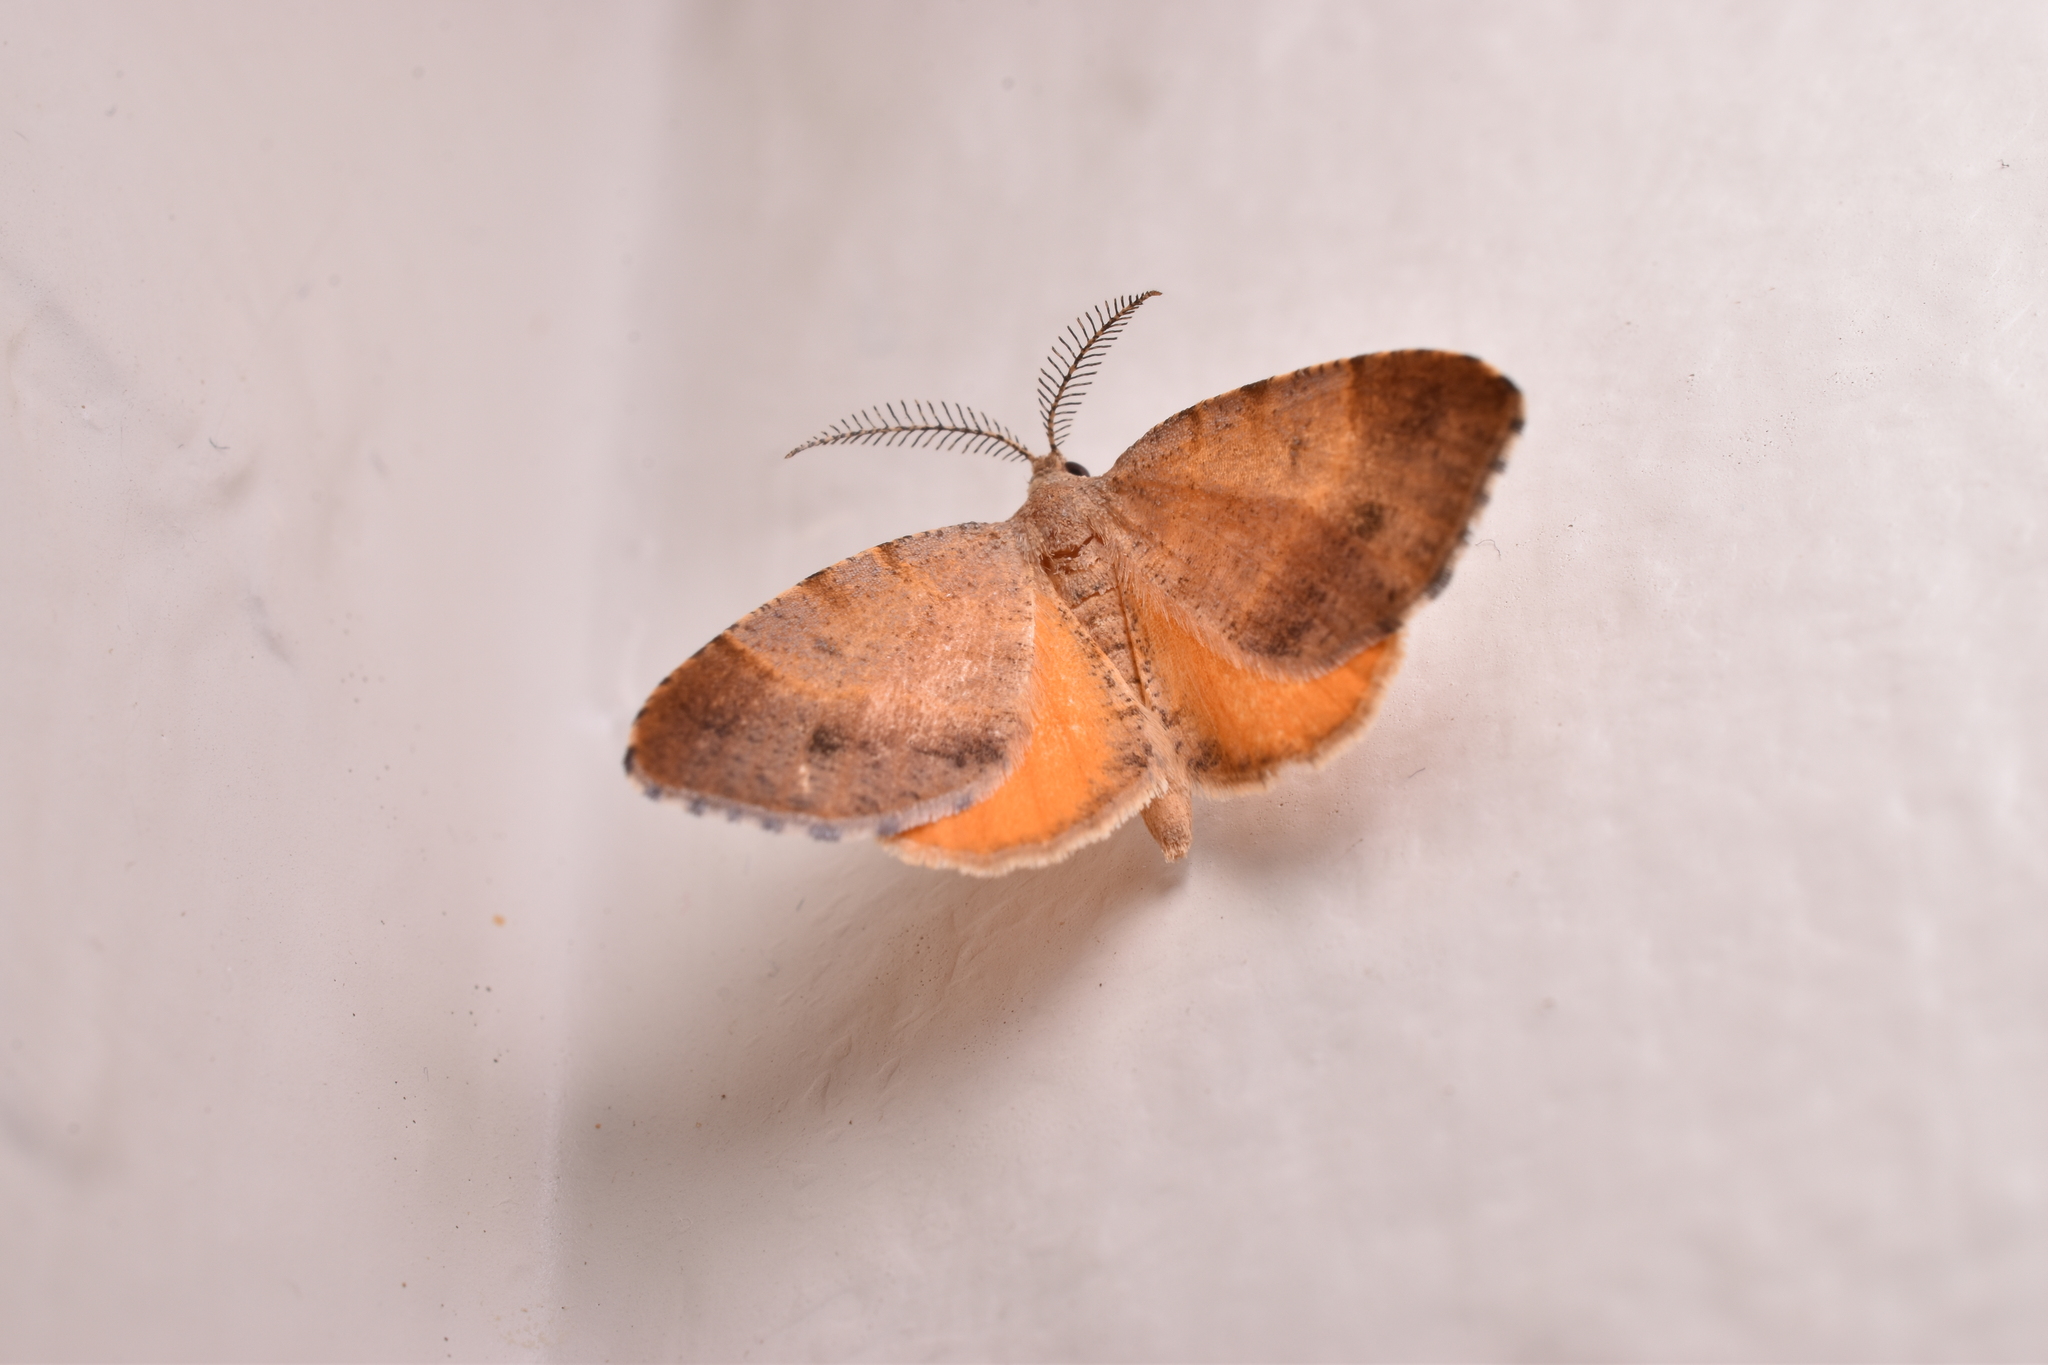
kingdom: Animalia
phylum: Arthropoda
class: Insecta
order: Lepidoptera
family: Geometridae
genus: Mellilla
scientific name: Mellilla xanthometata
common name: Orange wing moth
